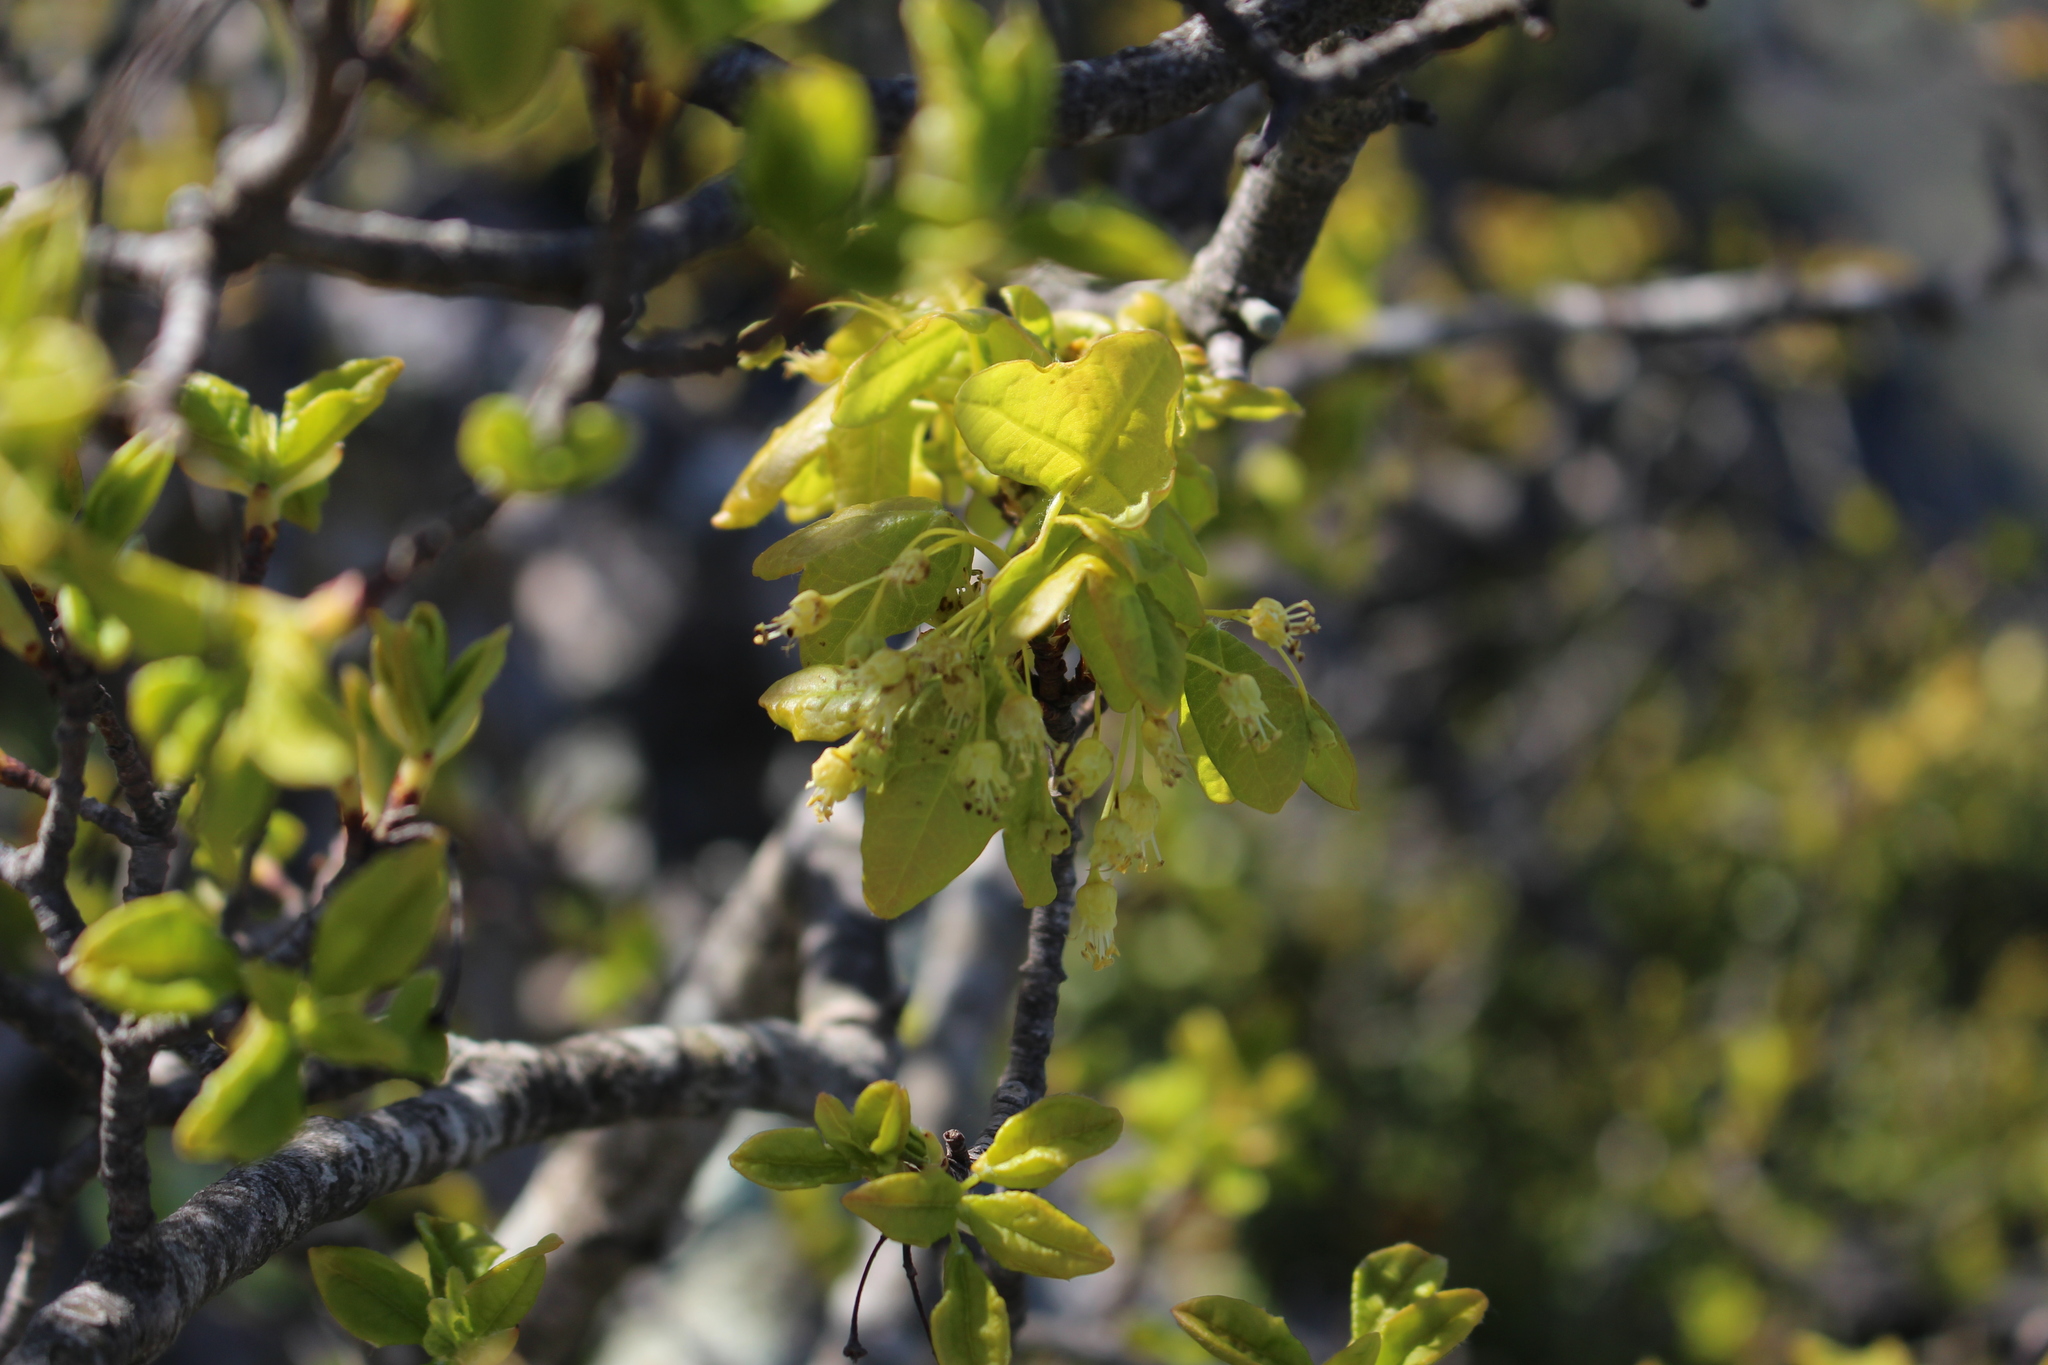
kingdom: Plantae
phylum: Tracheophyta
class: Magnoliopsida
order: Sapindales
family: Sapindaceae
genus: Acer
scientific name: Acer monspessulanum
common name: Montpellier maple
